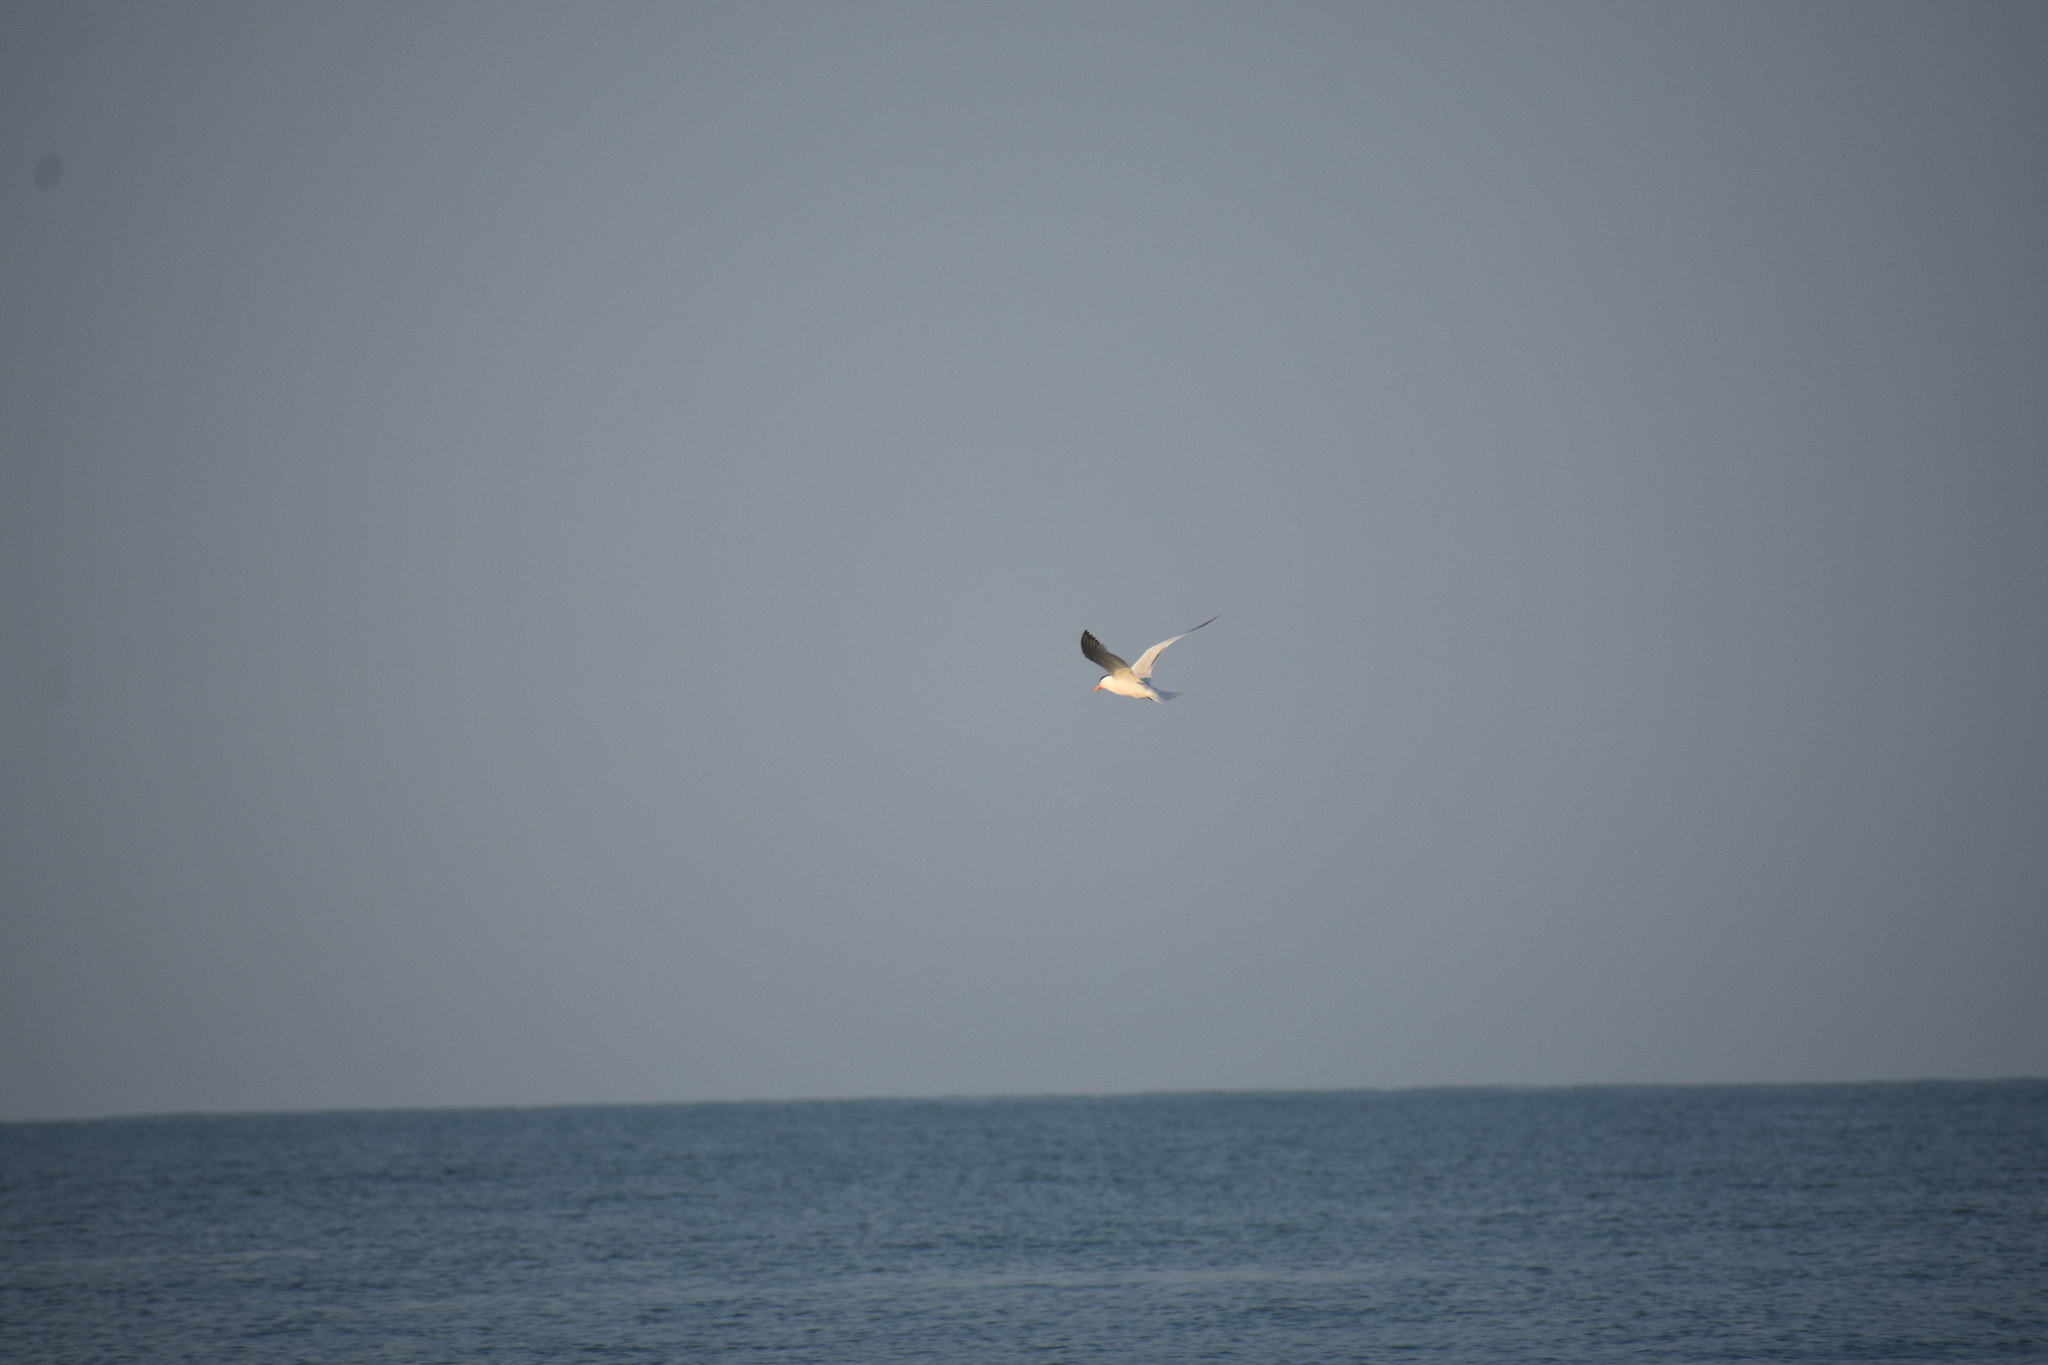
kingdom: Animalia
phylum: Chordata
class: Aves
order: Charadriiformes
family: Laridae
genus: Thalasseus
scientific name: Thalasseus maximus
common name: Royal tern
